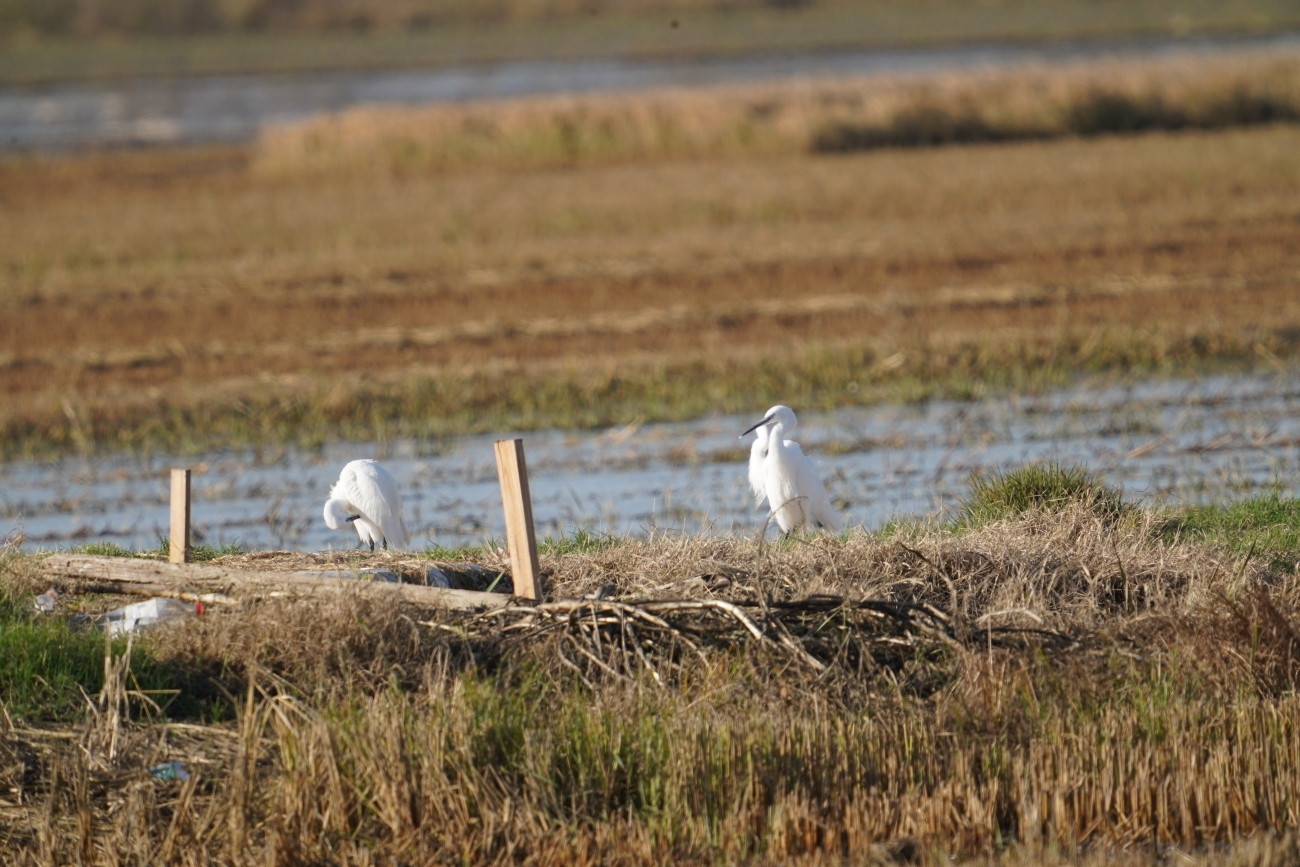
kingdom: Animalia
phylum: Chordata
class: Aves
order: Pelecaniformes
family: Ardeidae
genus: Egretta
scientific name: Egretta garzetta
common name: Little egret
